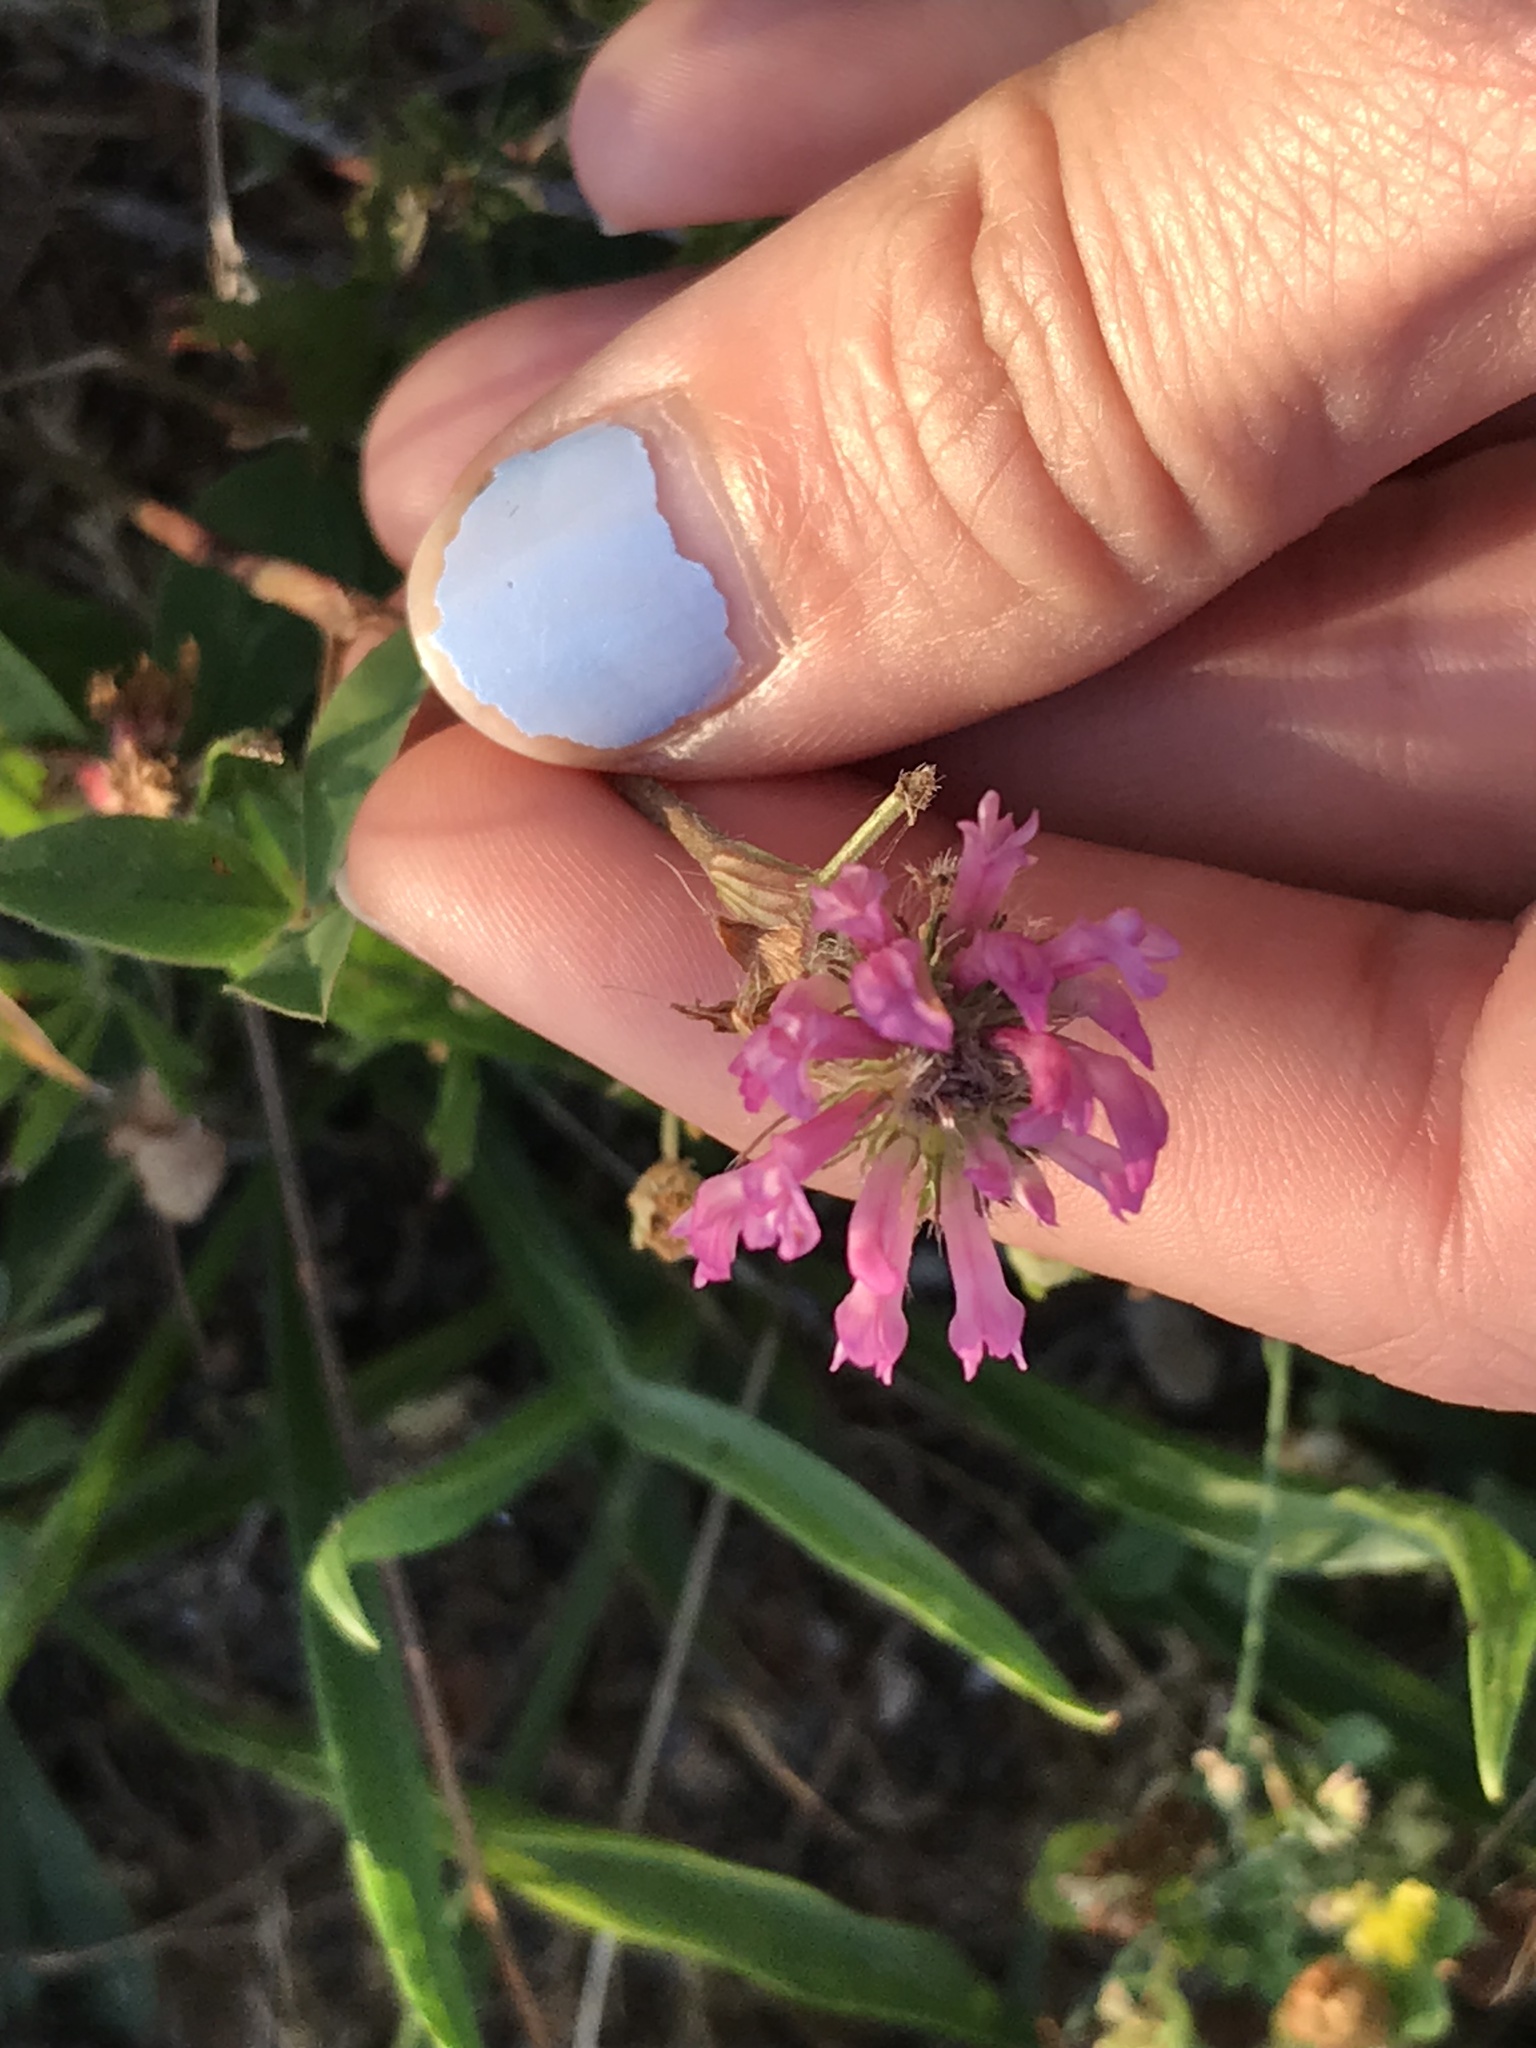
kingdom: Plantae
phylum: Tracheophyta
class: Magnoliopsida
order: Fabales
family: Fabaceae
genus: Trifolium
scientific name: Trifolium pratense
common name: Red clover
